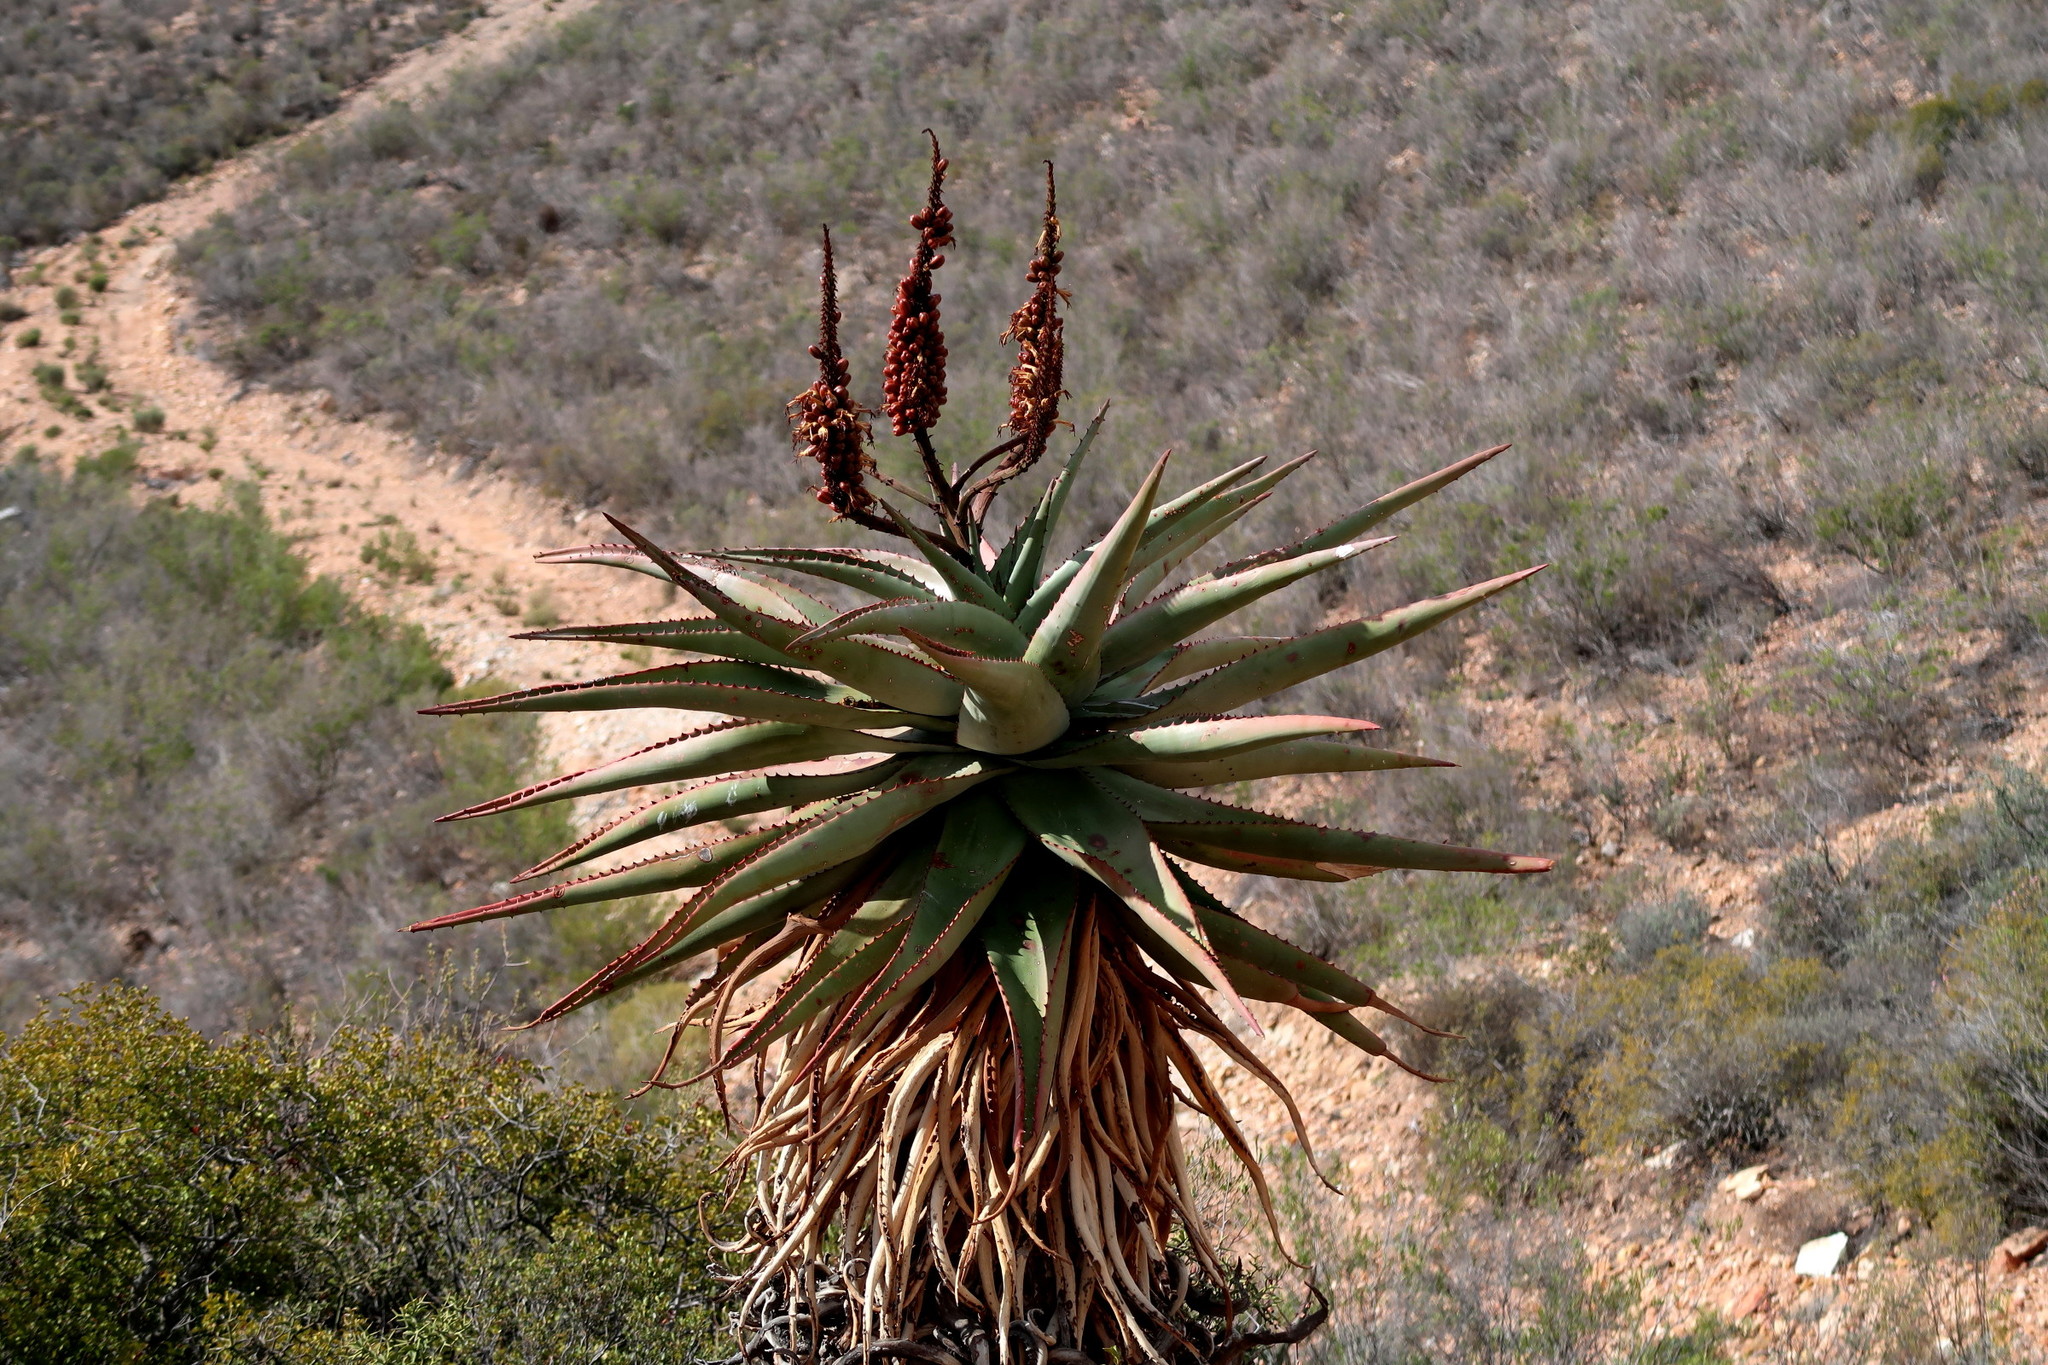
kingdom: Plantae
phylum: Tracheophyta
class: Liliopsida
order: Asparagales
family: Asphodelaceae
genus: Aloe
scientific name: Aloe ferox
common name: Bitter aloe
